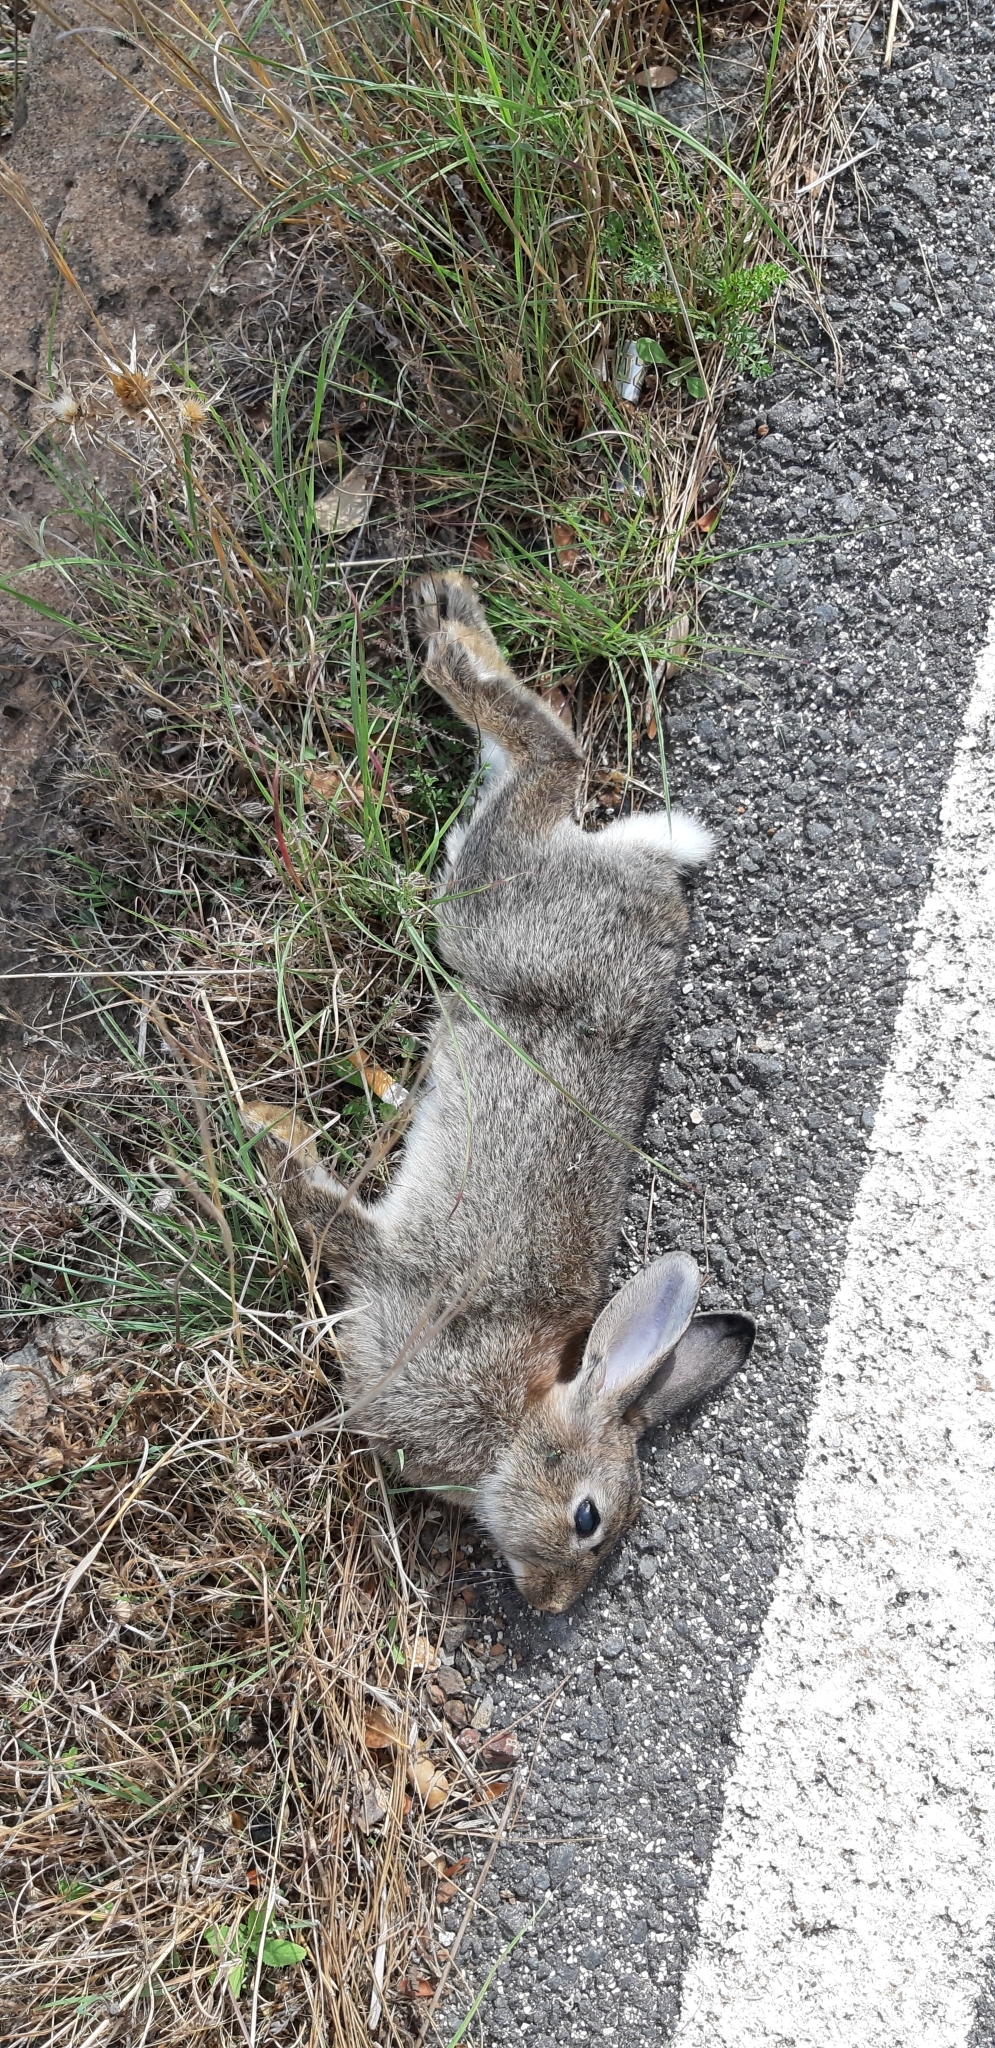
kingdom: Animalia
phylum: Chordata
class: Mammalia
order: Lagomorpha
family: Leporidae
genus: Oryctolagus
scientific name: Oryctolagus cuniculus
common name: European rabbit
